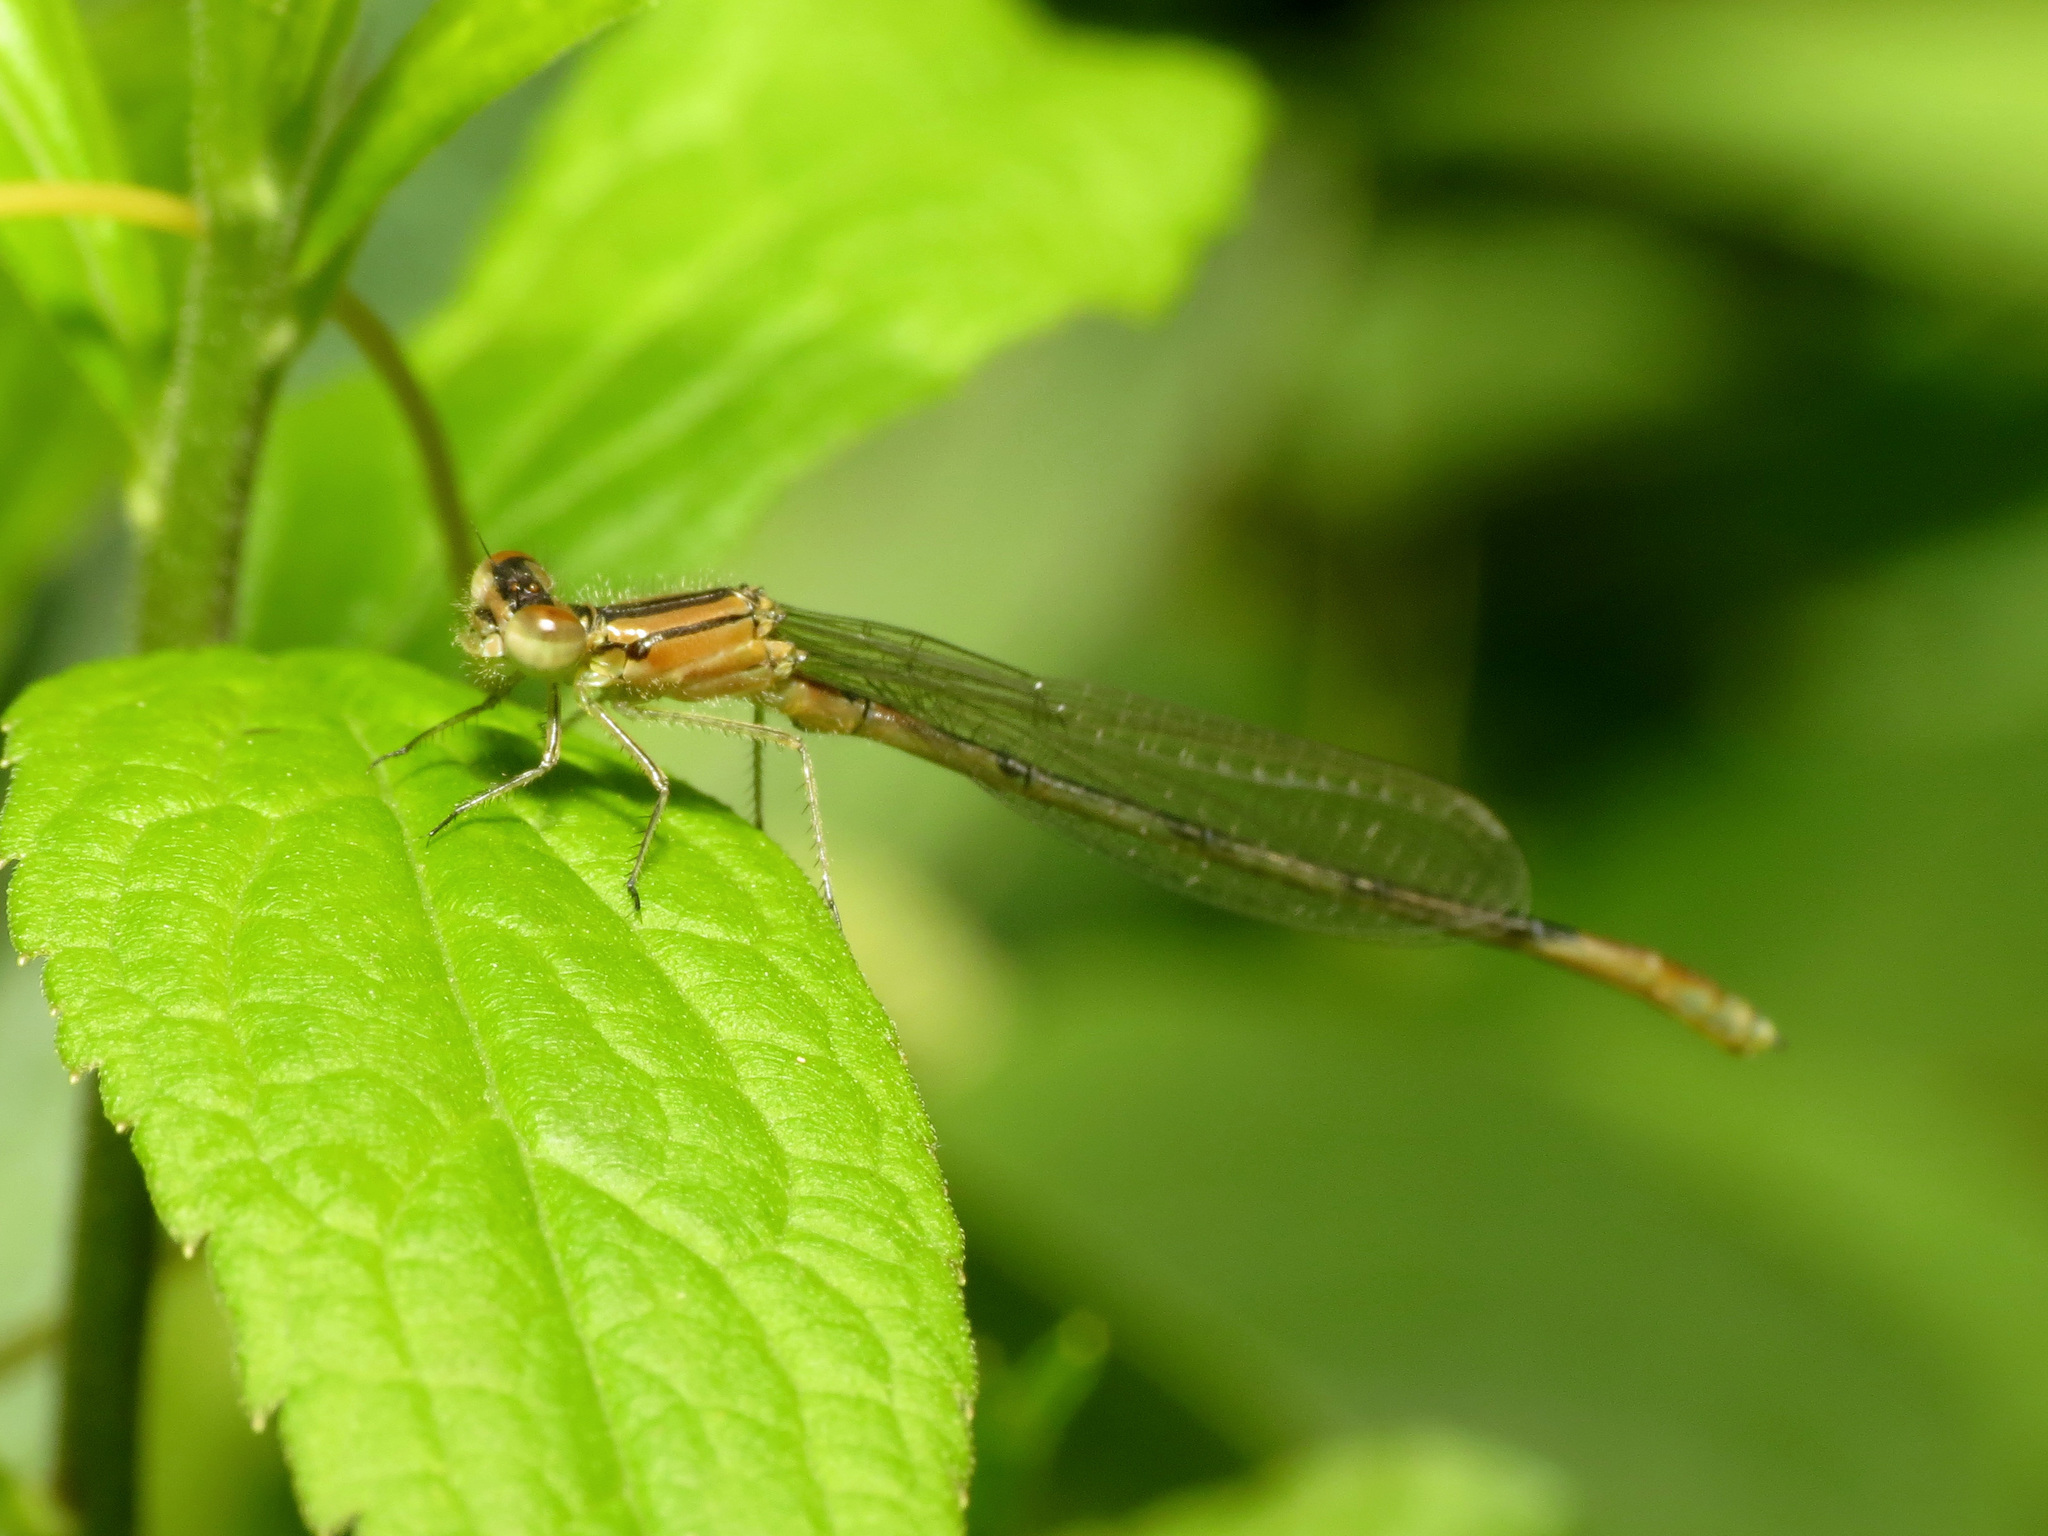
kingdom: Animalia
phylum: Arthropoda
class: Insecta
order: Odonata
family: Coenagrionidae
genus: Enallagma
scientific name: Enallagma aspersum
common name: Azure bluet
